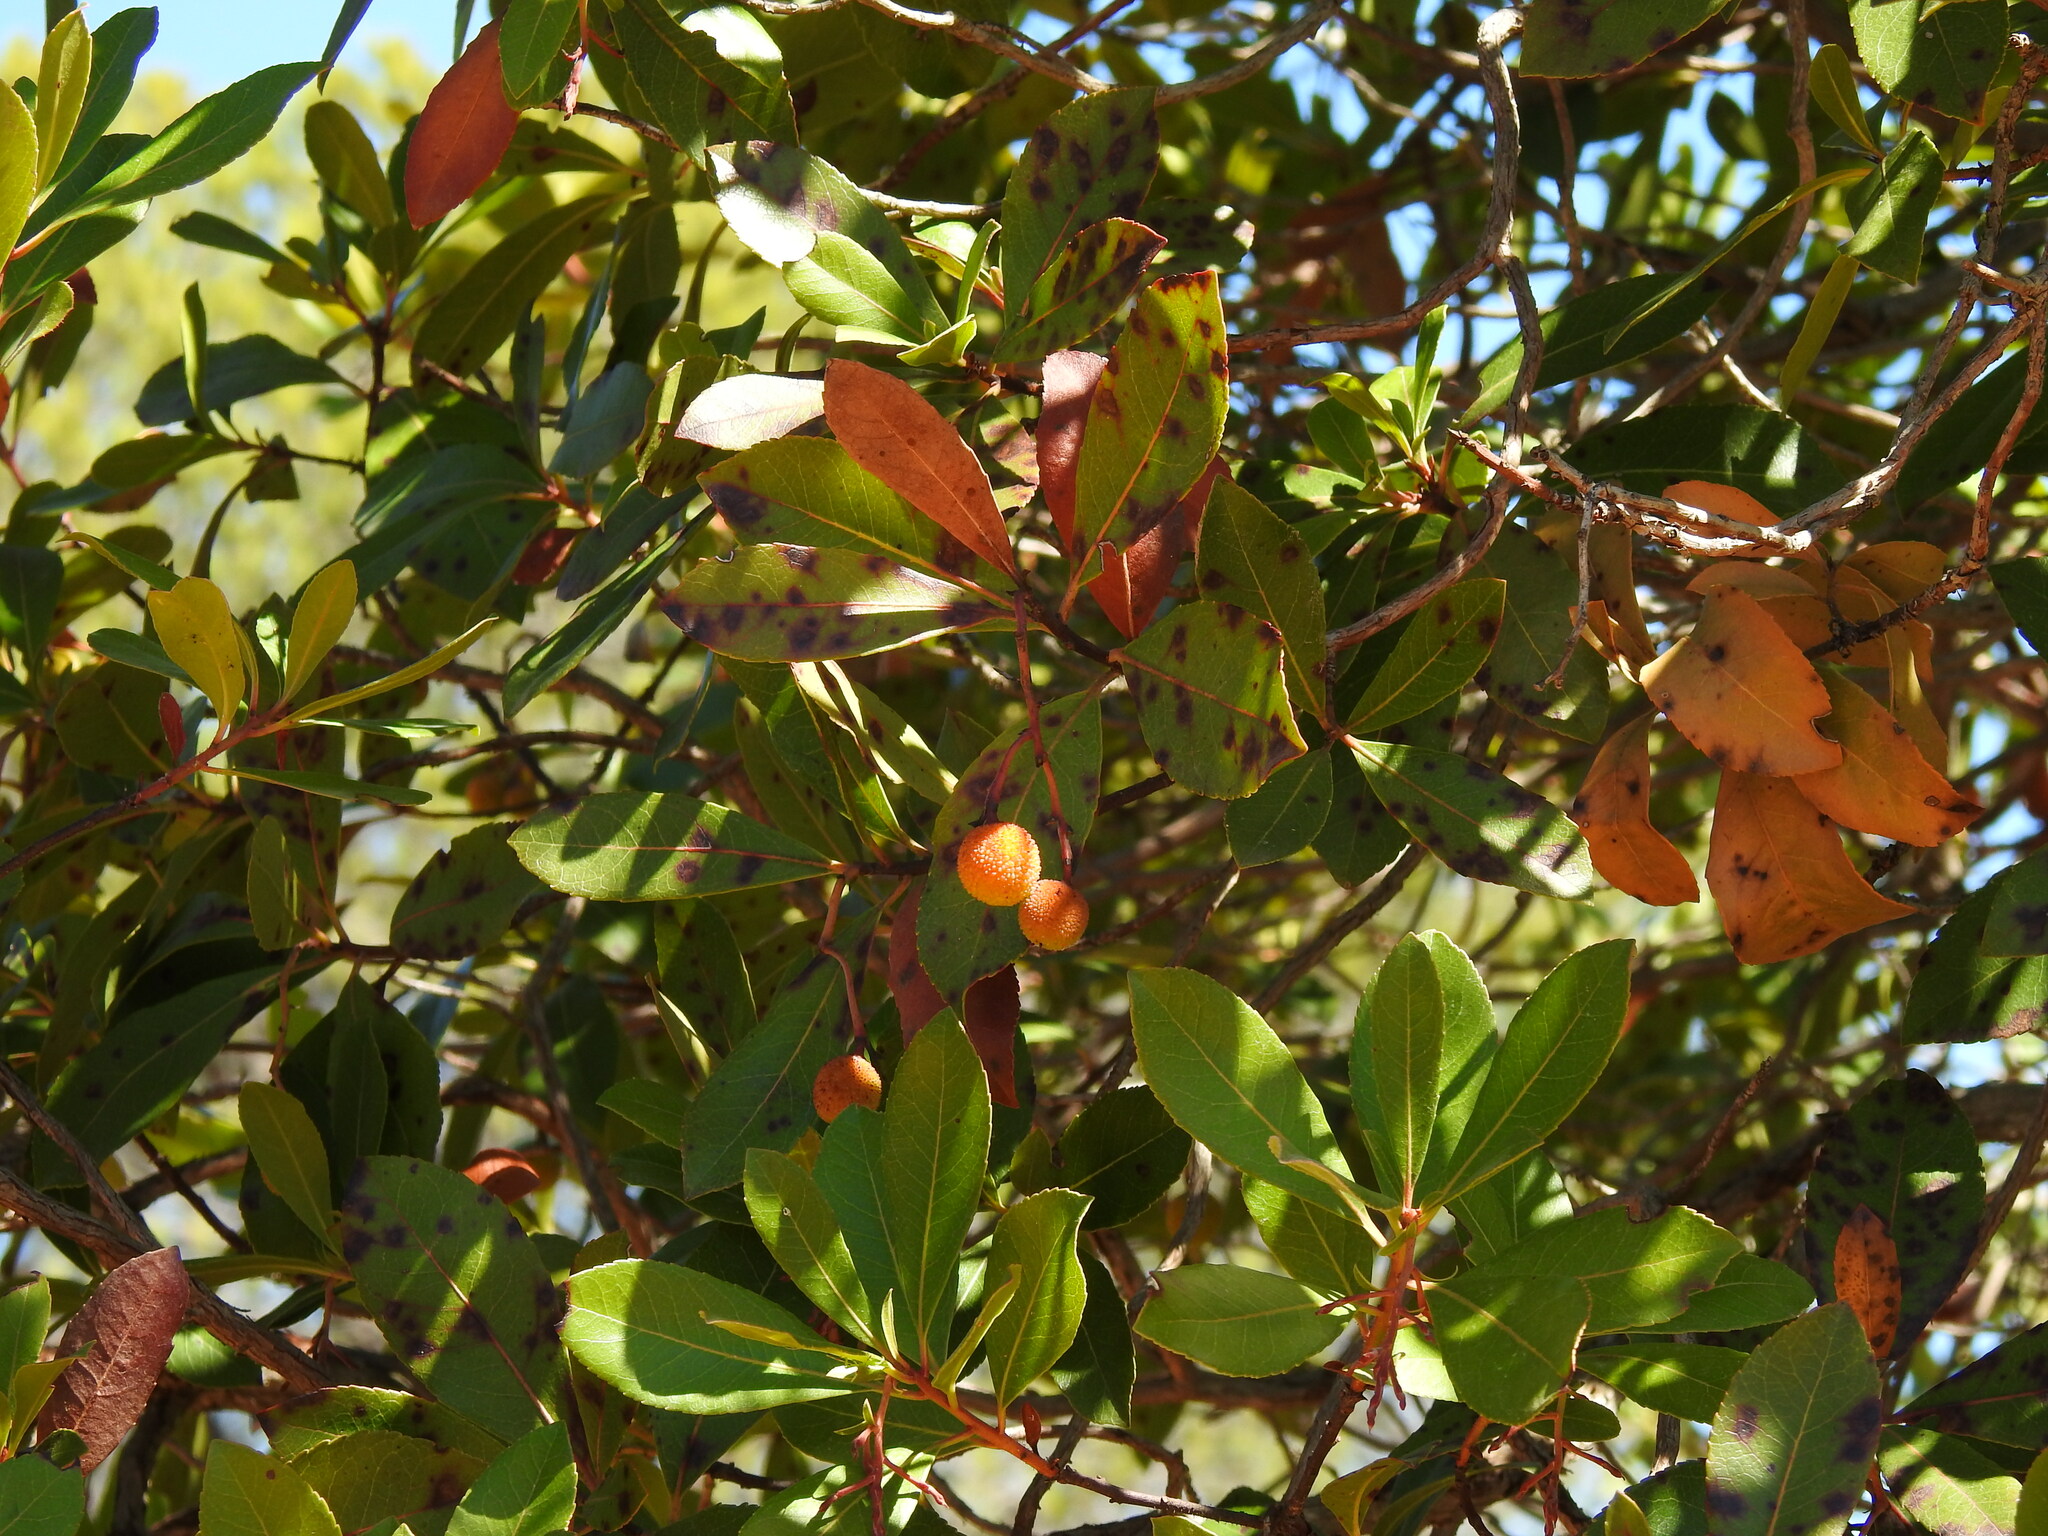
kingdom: Plantae
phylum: Tracheophyta
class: Magnoliopsida
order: Ericales
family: Ericaceae
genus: Arbutus
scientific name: Arbutus unedo
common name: Strawberry-tree
